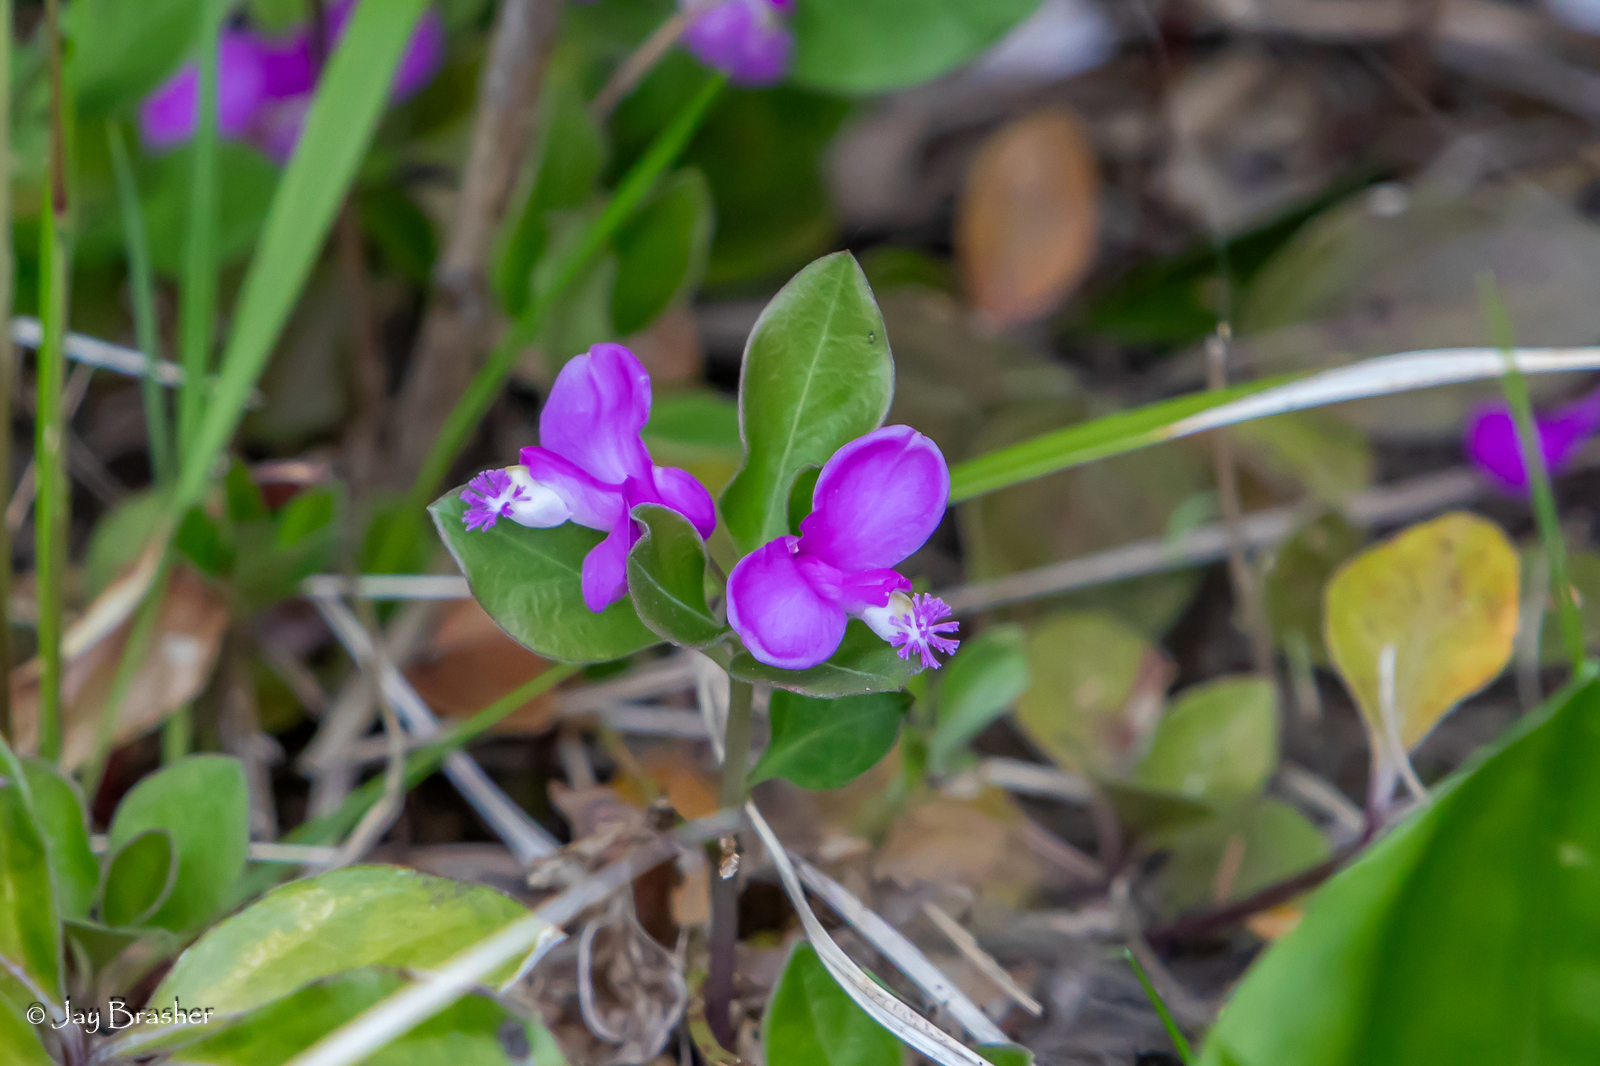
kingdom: Plantae
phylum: Tracheophyta
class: Magnoliopsida
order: Fabales
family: Polygalaceae
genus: Polygaloides
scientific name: Polygaloides paucifolia
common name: Bird-on-the-wing
